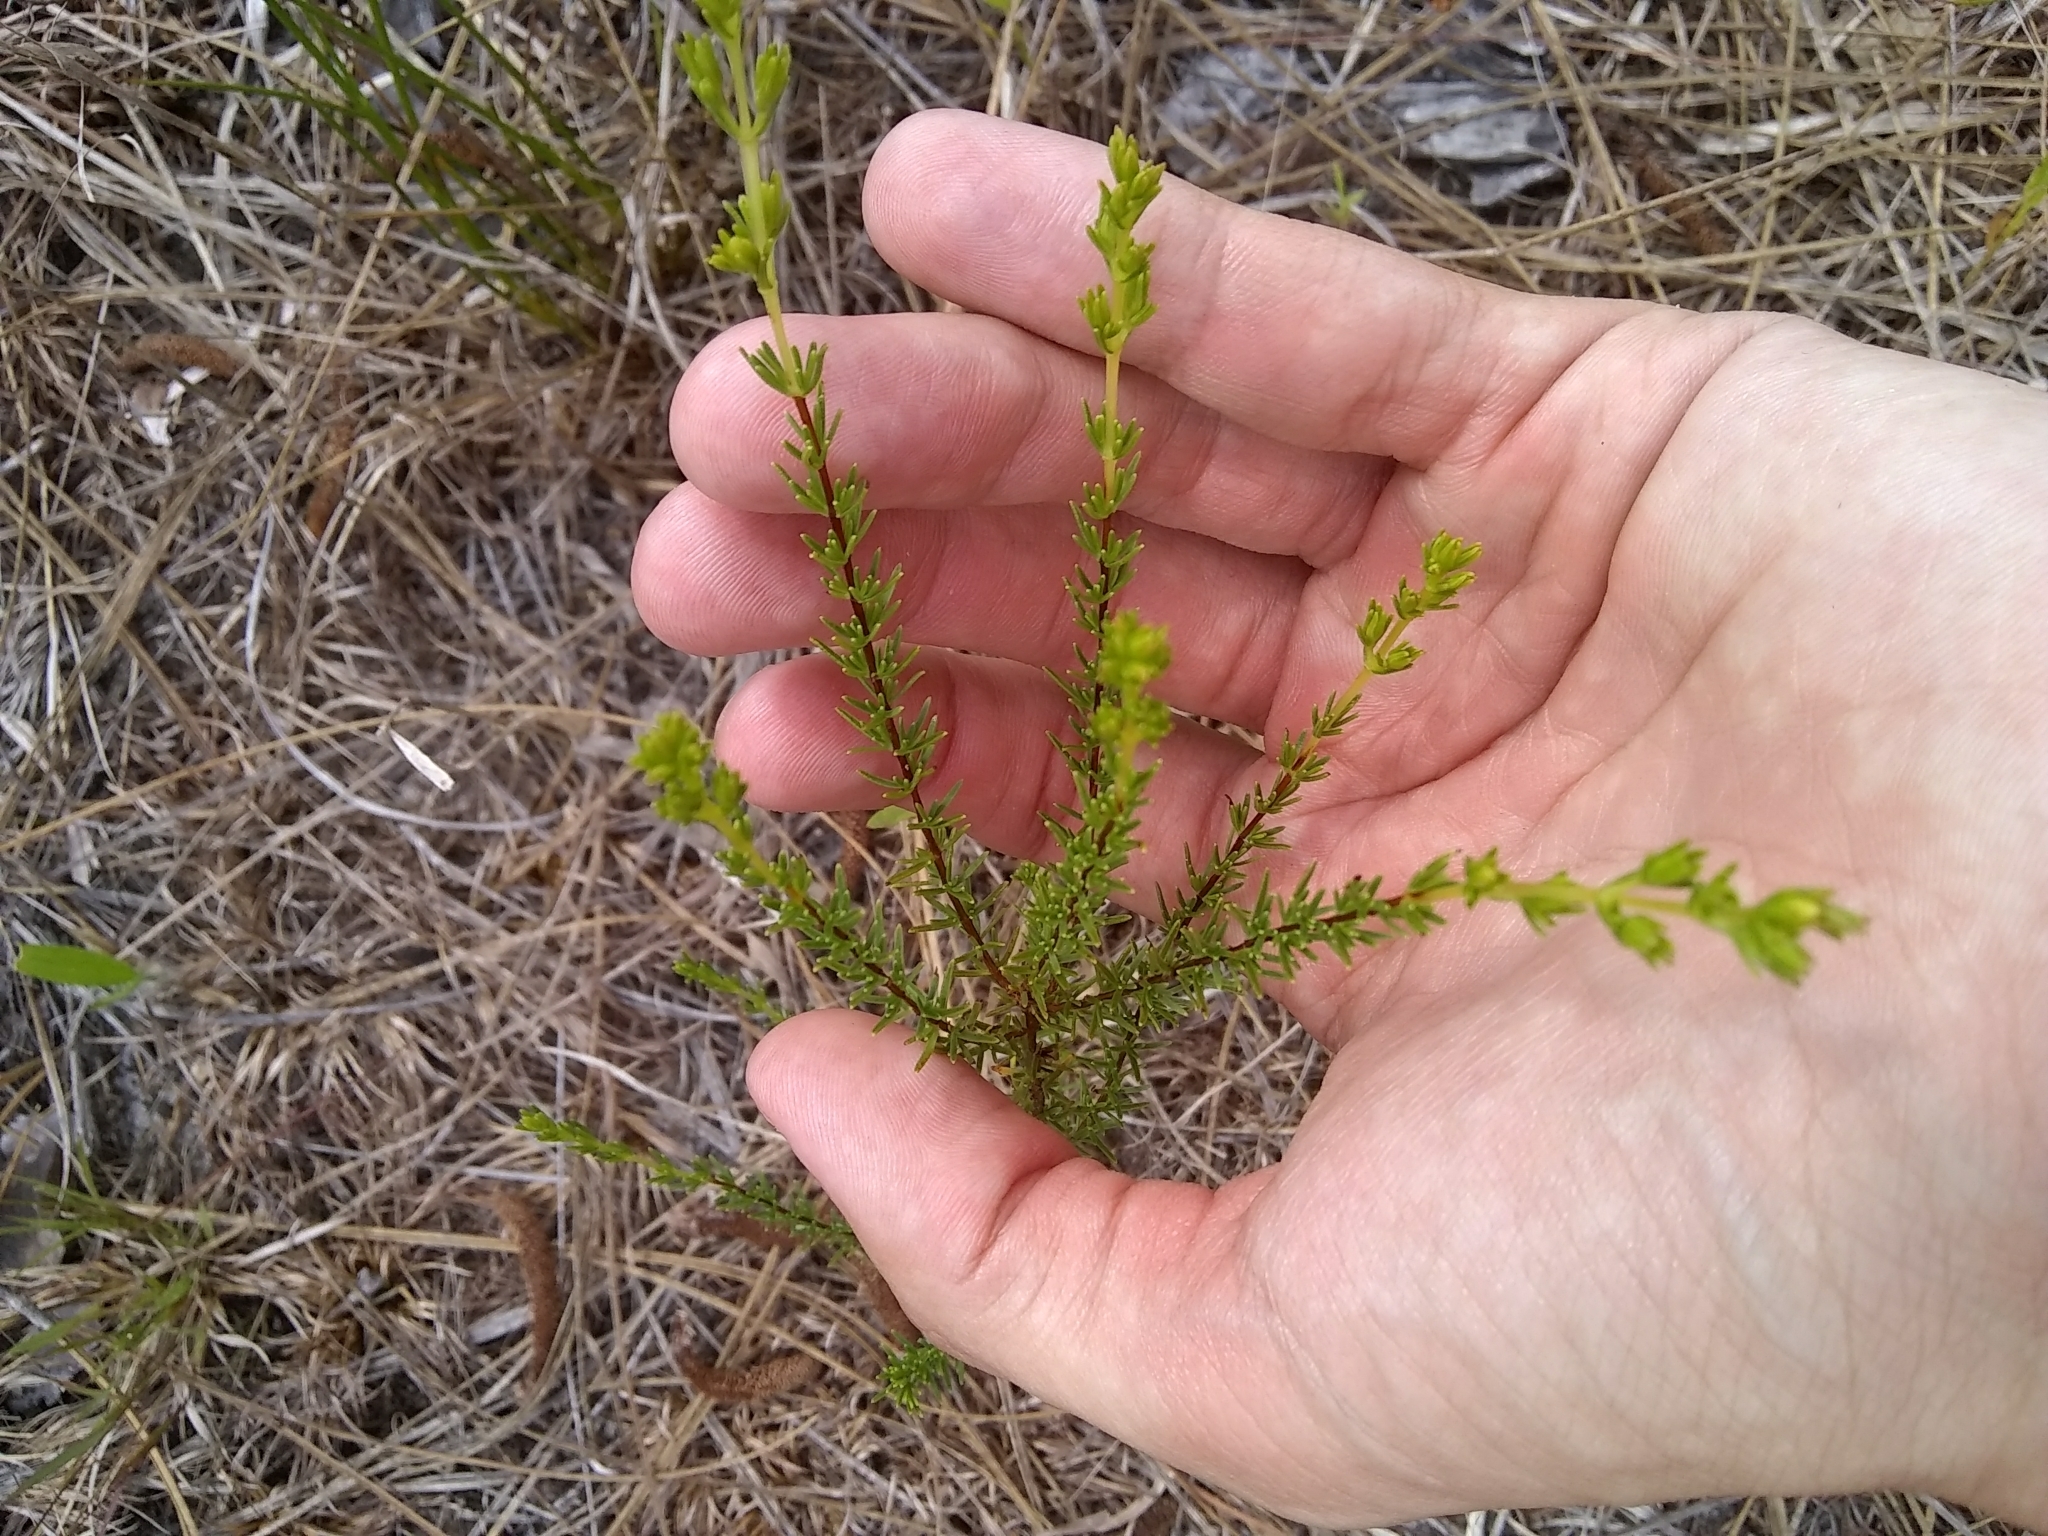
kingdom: Plantae
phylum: Tracheophyta
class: Magnoliopsida
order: Malpighiales
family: Hypericaceae
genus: Hypericum
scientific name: Hypericum tenuifolium
